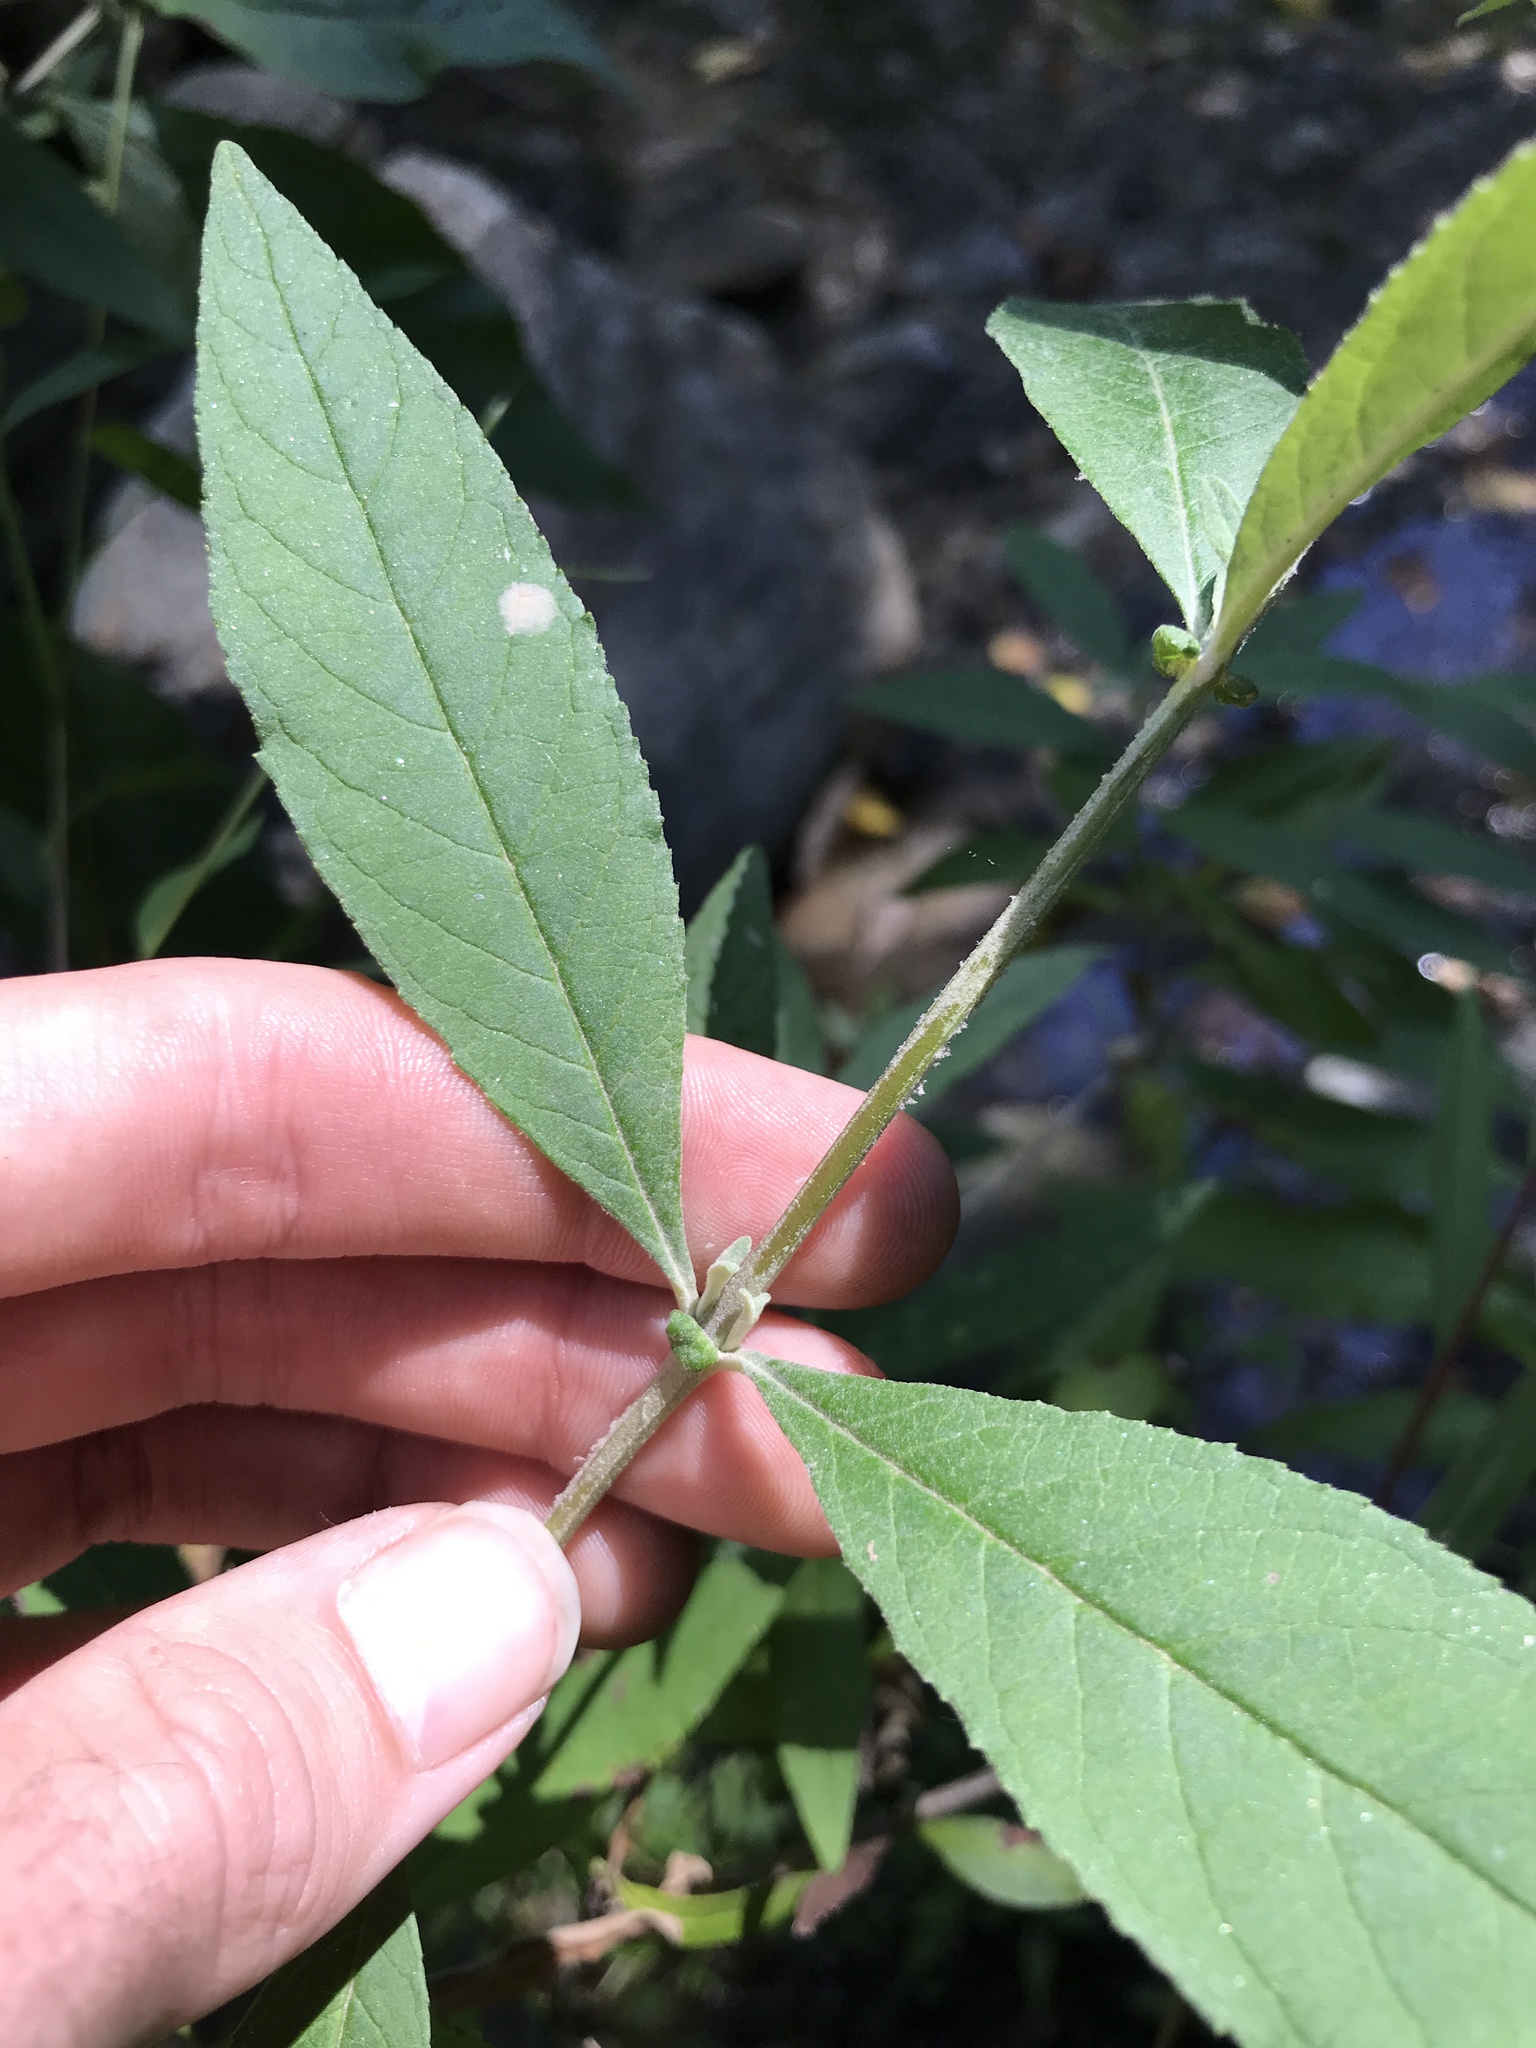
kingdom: Plantae
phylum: Tracheophyta
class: Magnoliopsida
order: Lamiales
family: Scrophulariaceae
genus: Buddleja
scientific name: Buddleja davidii
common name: Butterfly-bush
